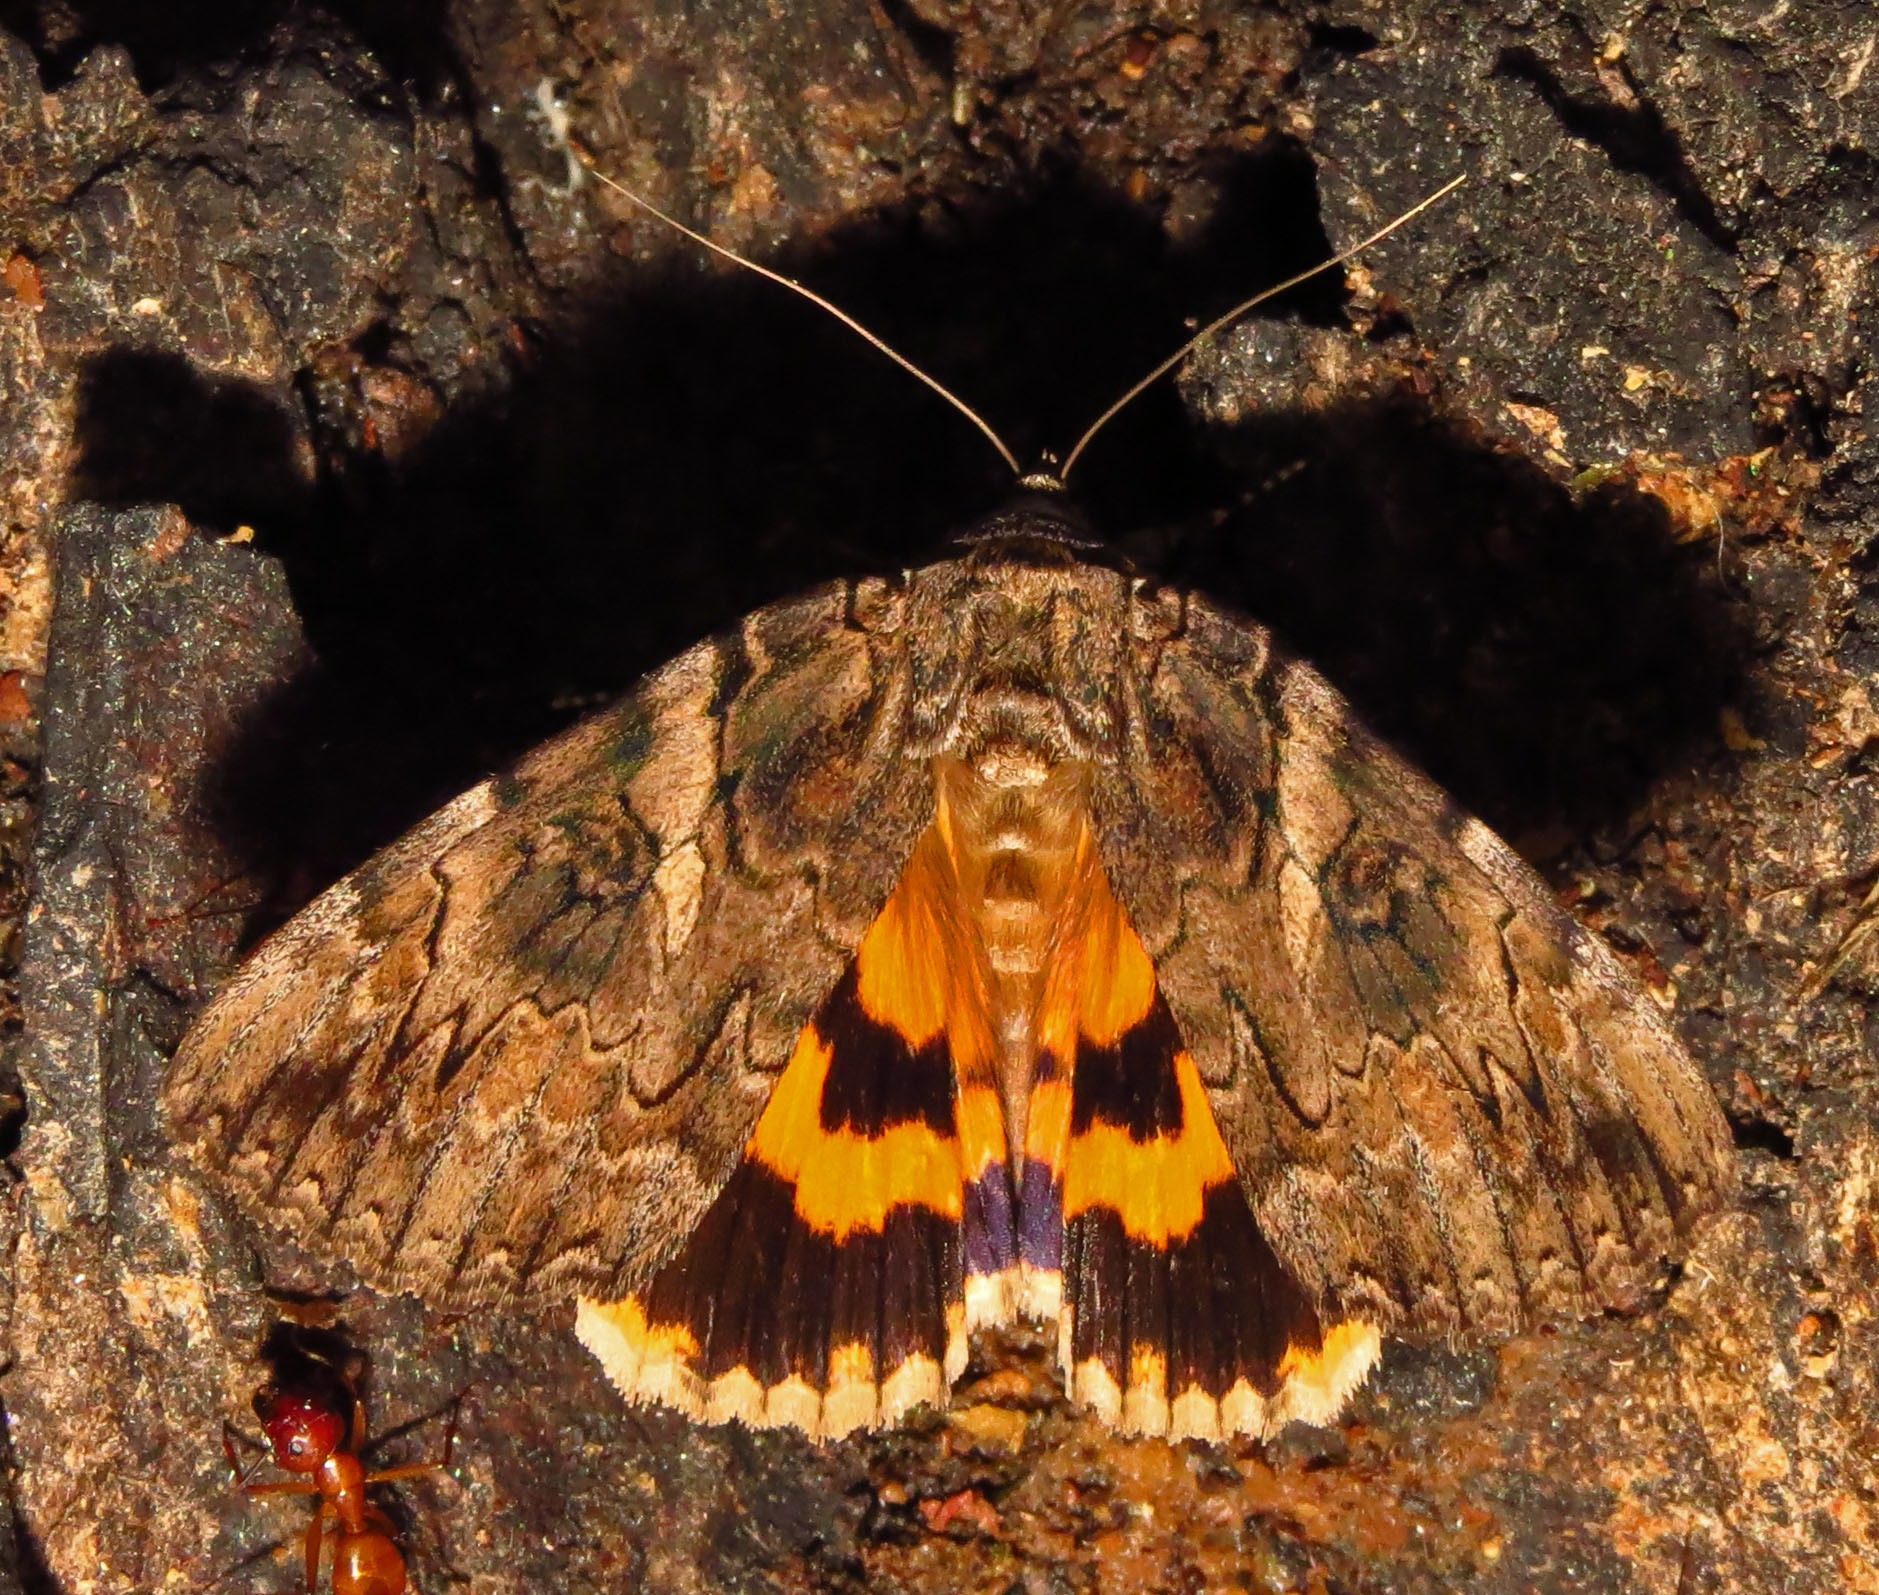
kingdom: Animalia
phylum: Arthropoda
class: Insecta
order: Lepidoptera
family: Erebidae
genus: Catocala
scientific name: Catocala piatrix
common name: The penitent underwing
